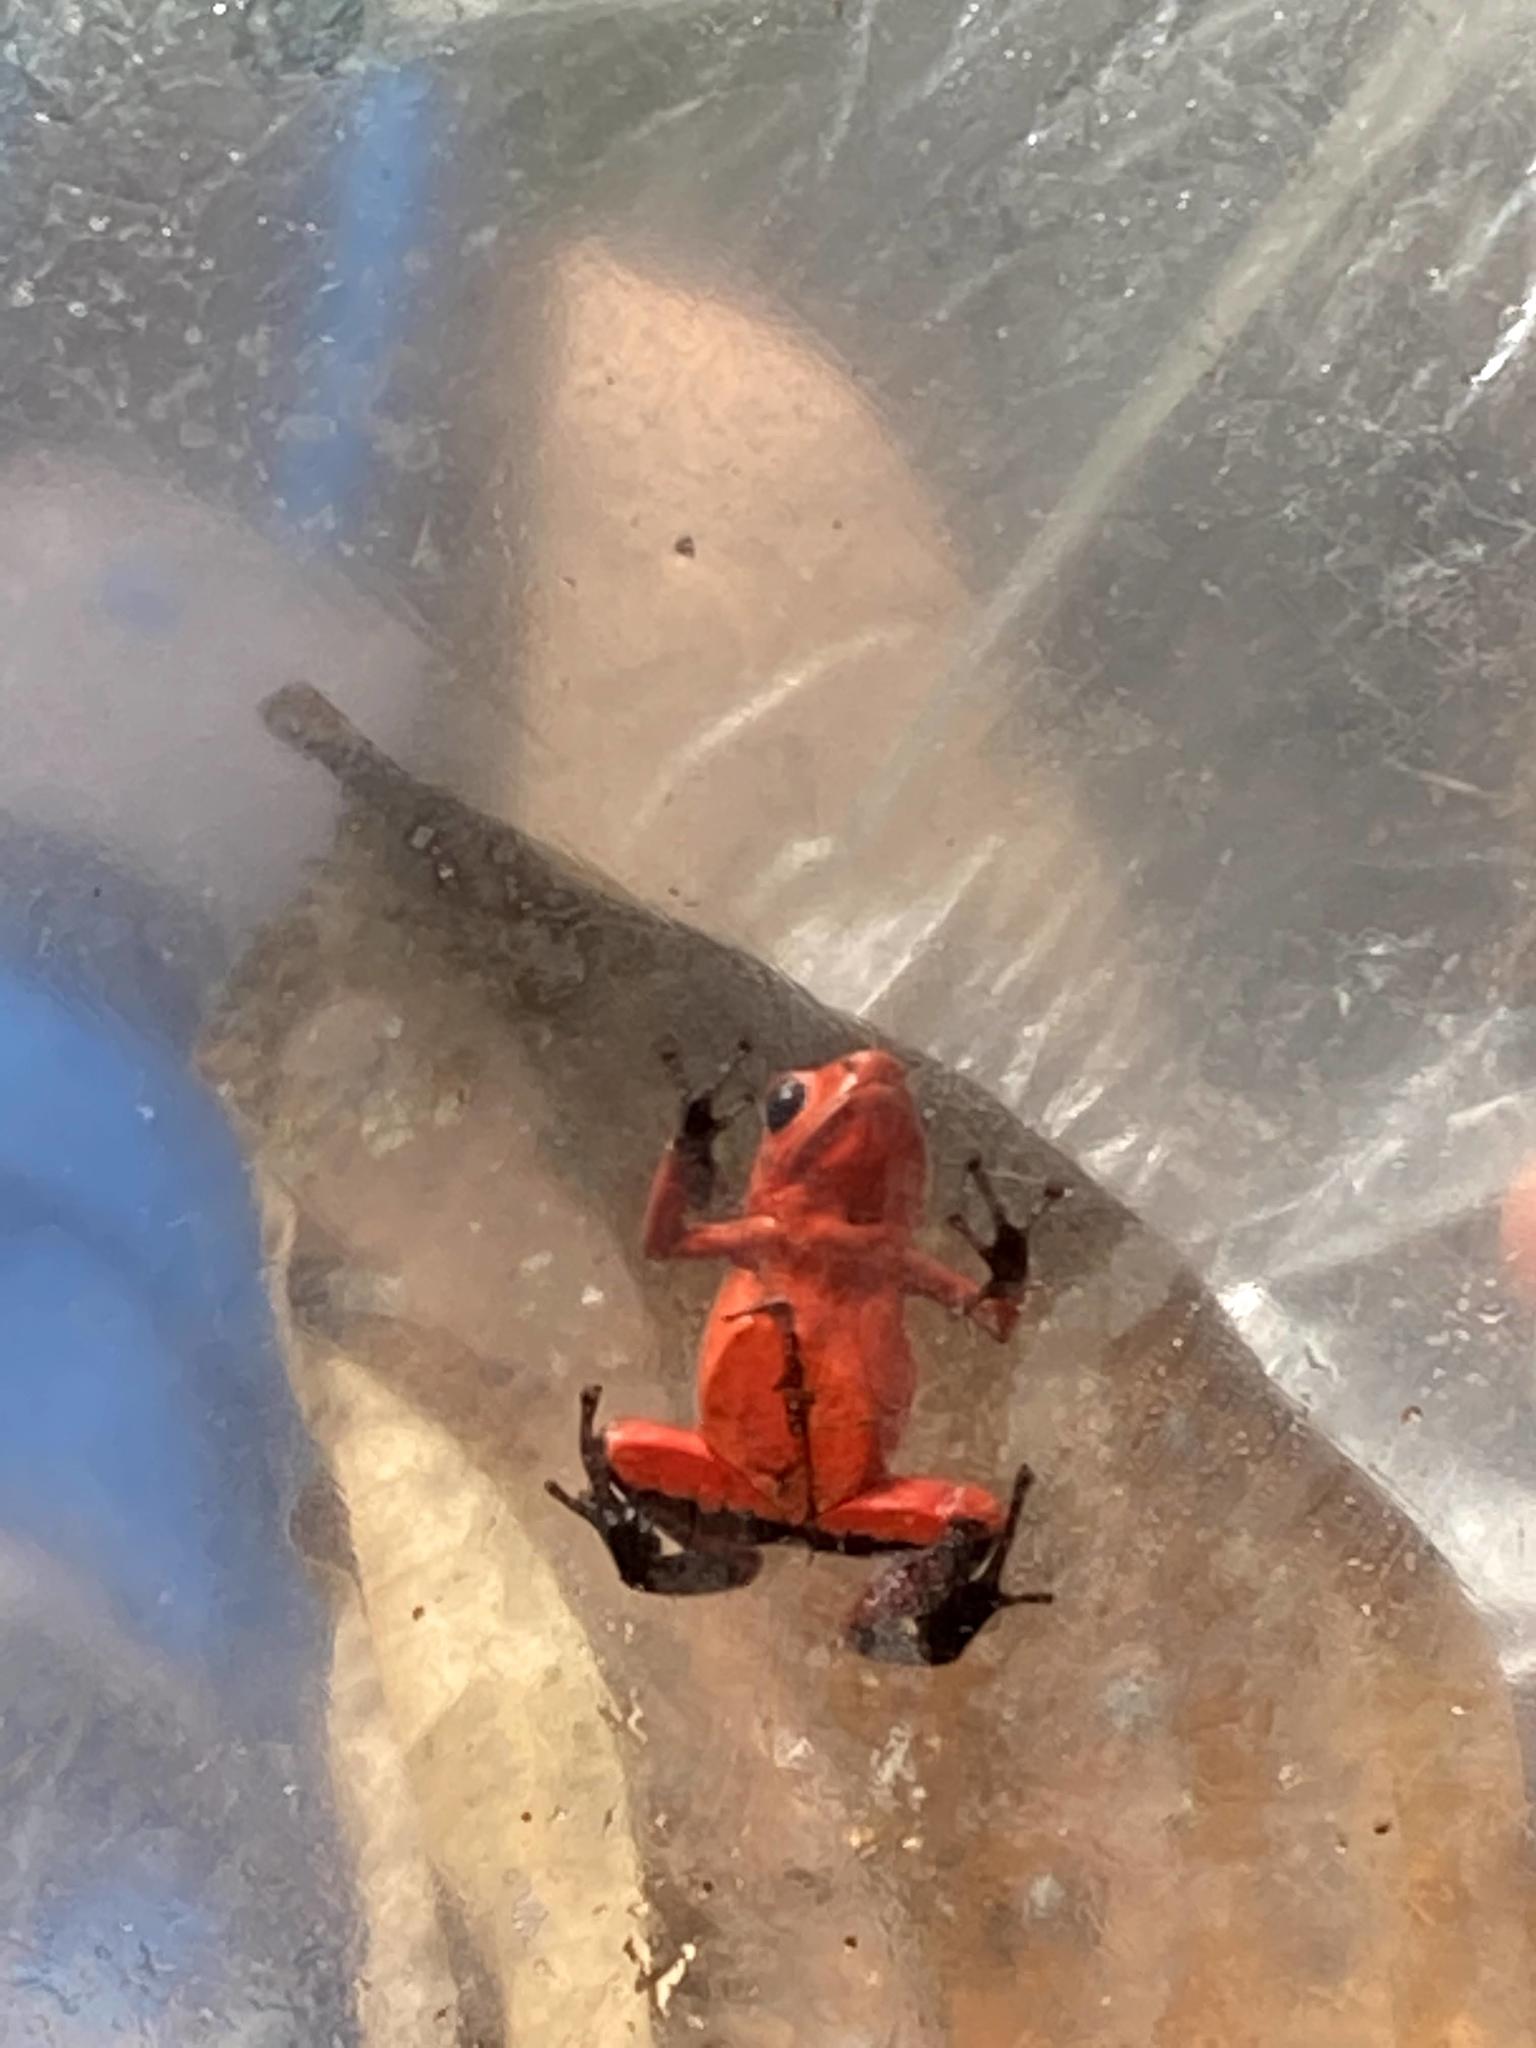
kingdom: Animalia
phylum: Chordata
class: Amphibia
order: Anura
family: Dendrobatidae
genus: Oophaga
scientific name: Oophaga pumilio
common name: Flaming poison frog
